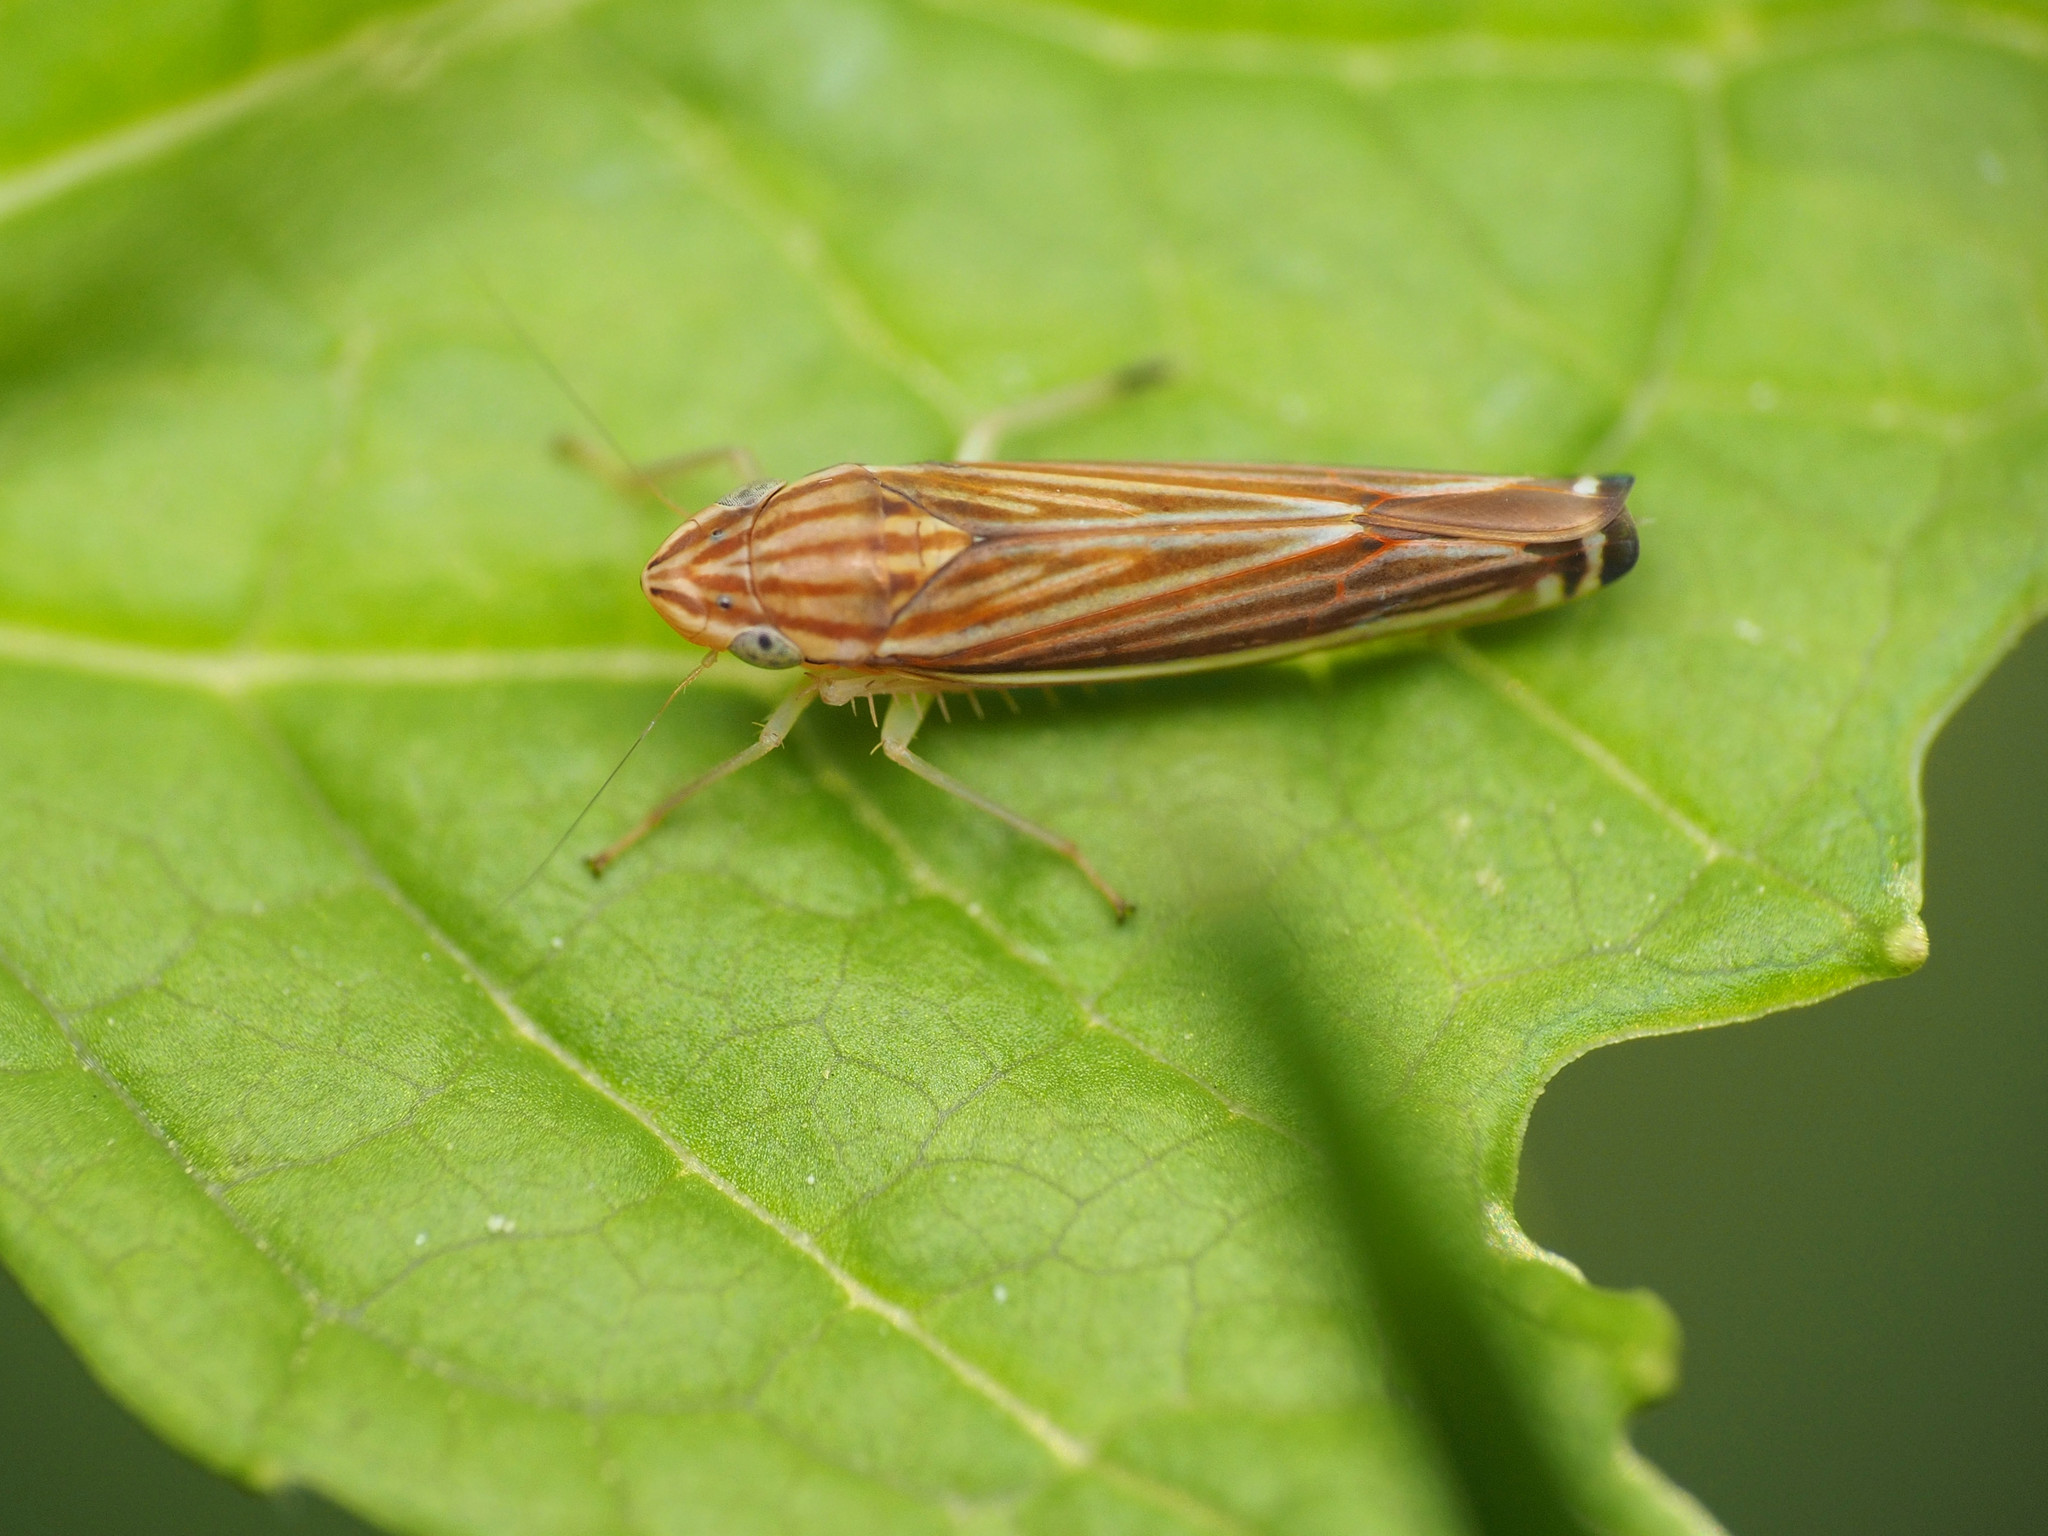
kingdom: Animalia
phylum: Arthropoda
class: Insecta
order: Hemiptera
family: Cicadellidae
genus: Sibovia
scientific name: Sibovia occatoria
